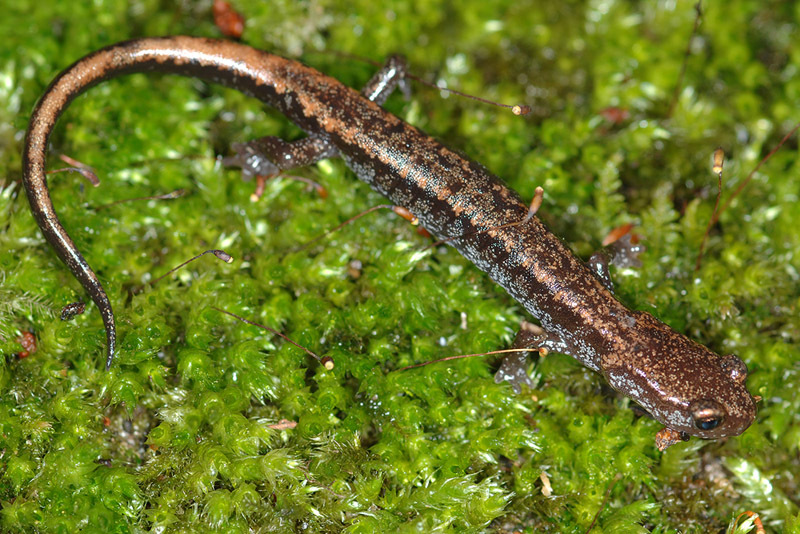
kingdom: Animalia
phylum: Chordata
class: Amphibia
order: Caudata
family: Plethodontidae
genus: Karsenia
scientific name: Karsenia koreana
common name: Korean crevice salamander
